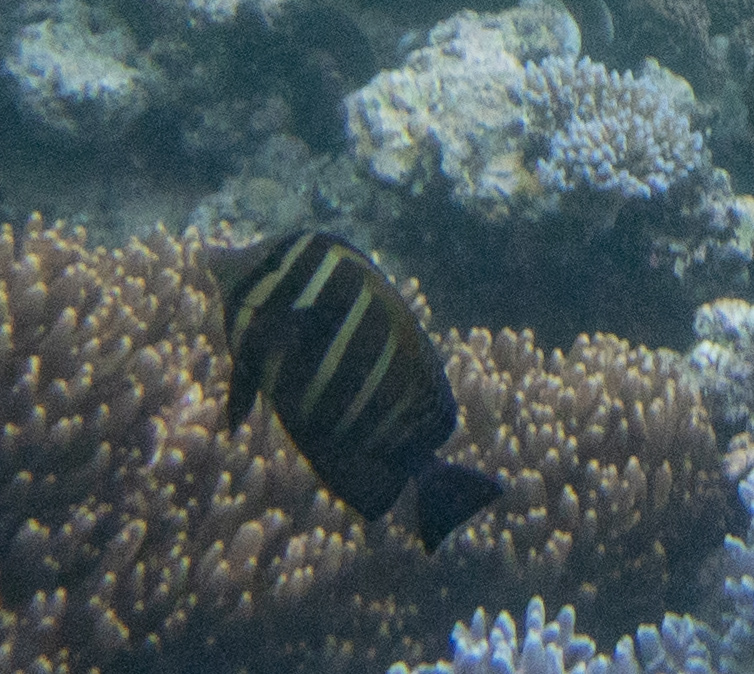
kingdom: Animalia
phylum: Chordata
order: Perciformes
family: Acanthuridae
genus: Zebrasoma
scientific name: Zebrasoma veliferum
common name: Sailfin surgeonfish
